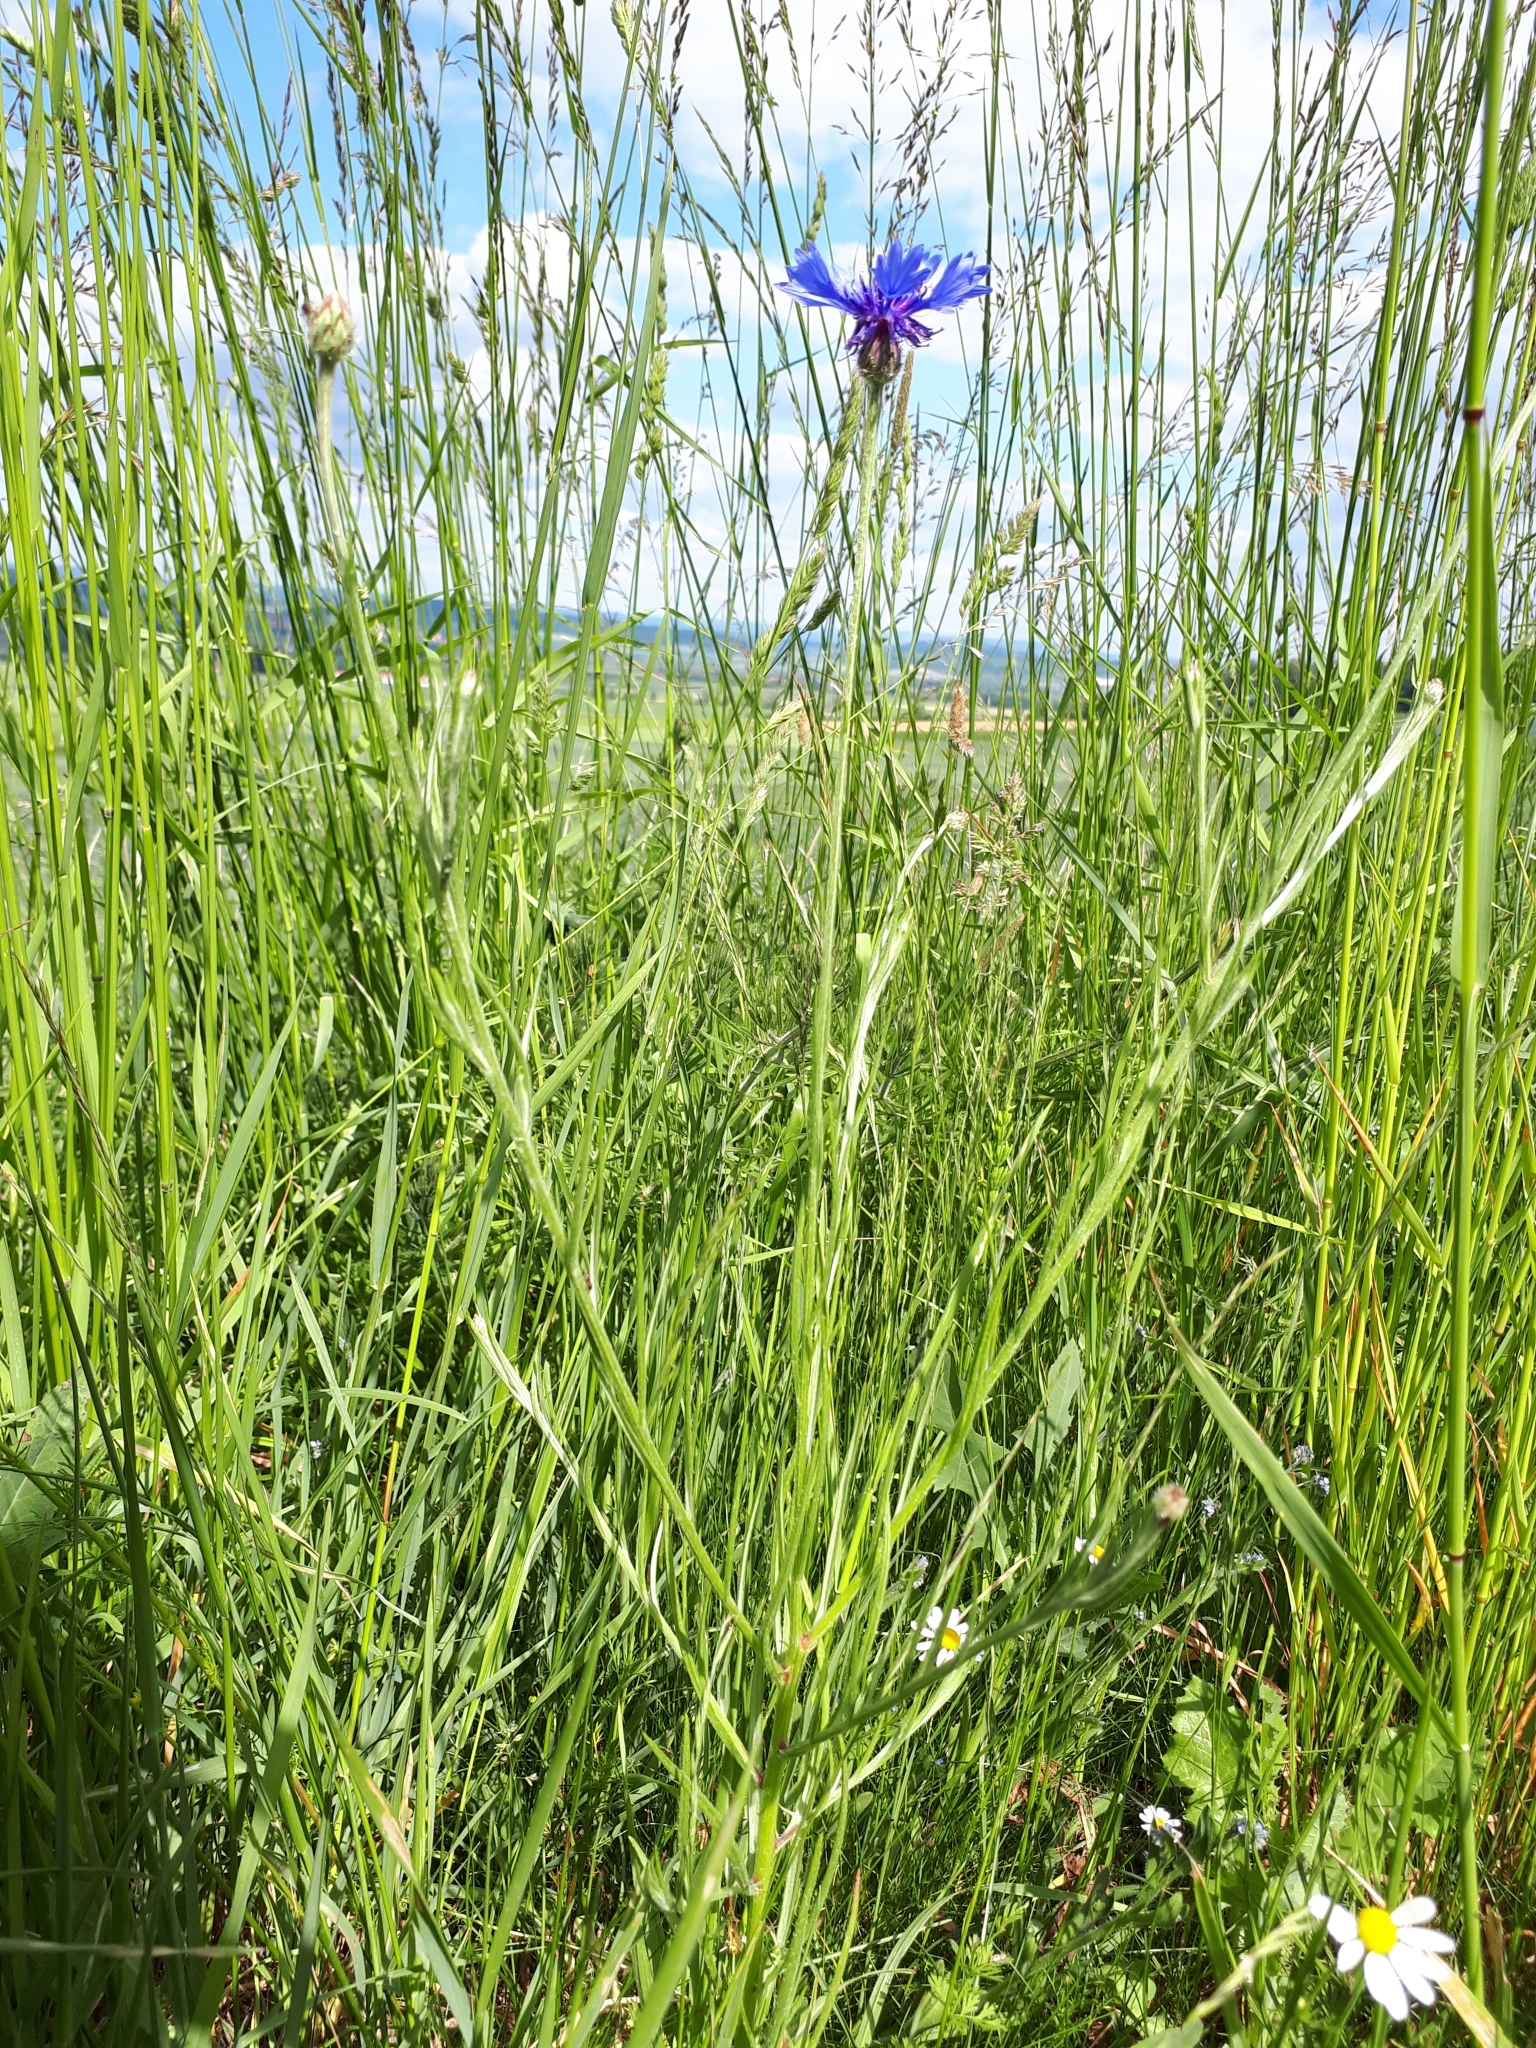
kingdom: Plantae
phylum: Tracheophyta
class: Magnoliopsida
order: Asterales
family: Asteraceae
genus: Centaurea
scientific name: Centaurea cyanus
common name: Cornflower
